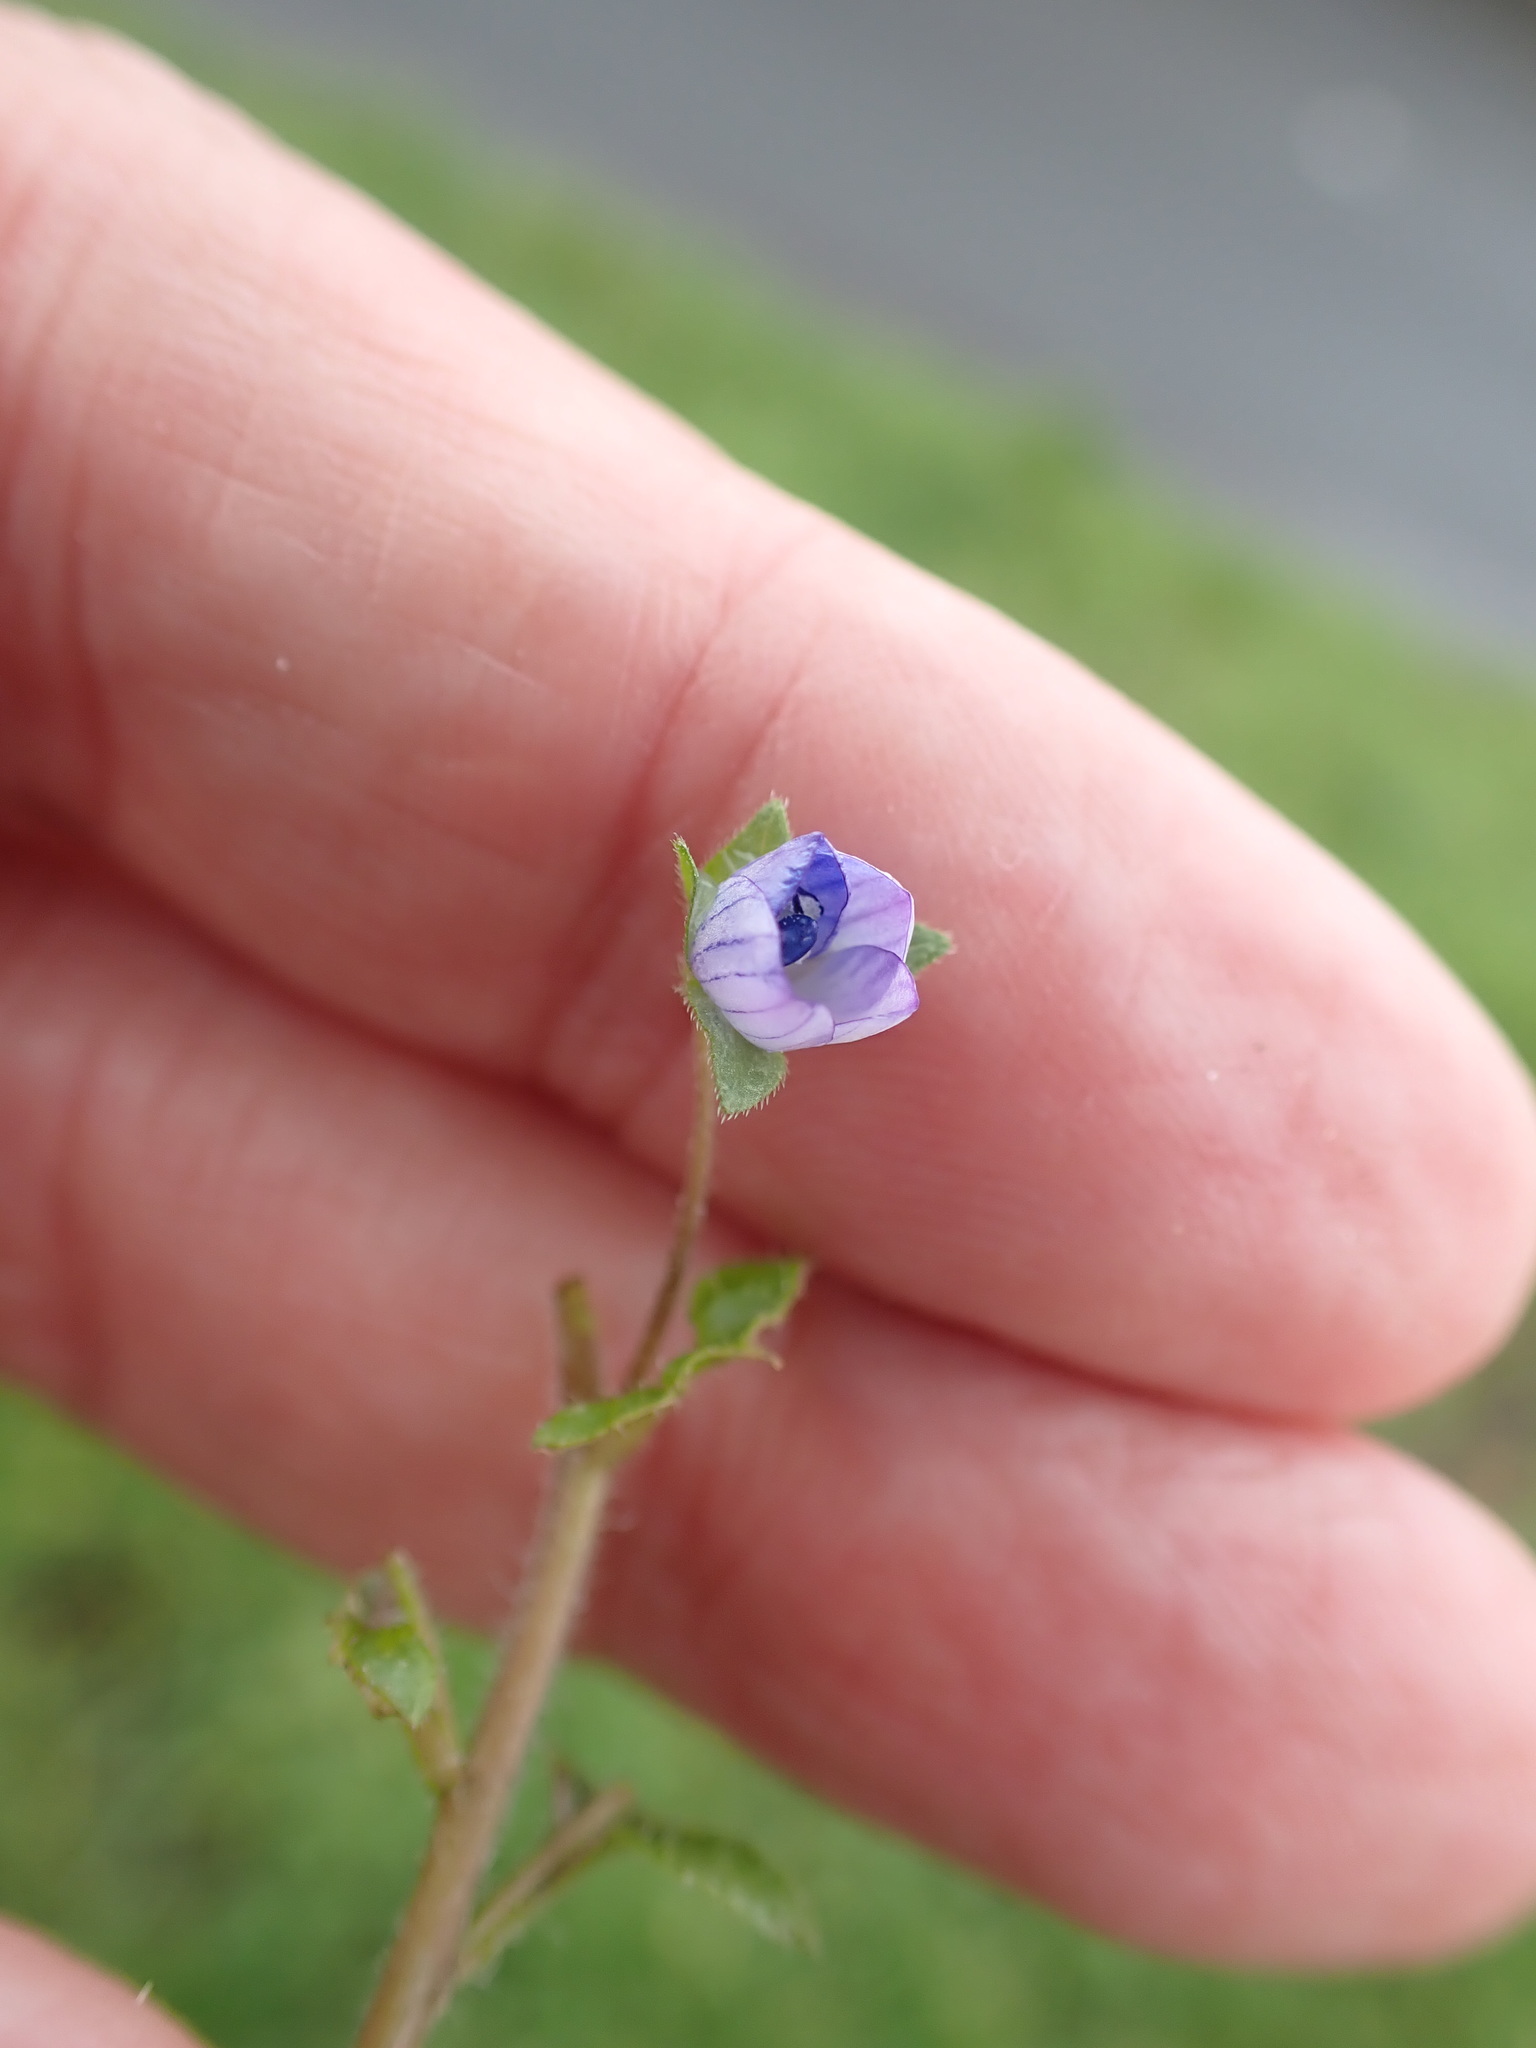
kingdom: Plantae
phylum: Tracheophyta
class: Magnoliopsida
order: Lamiales
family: Plantaginaceae
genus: Veronica
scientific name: Veronica persica
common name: Common field-speedwell
